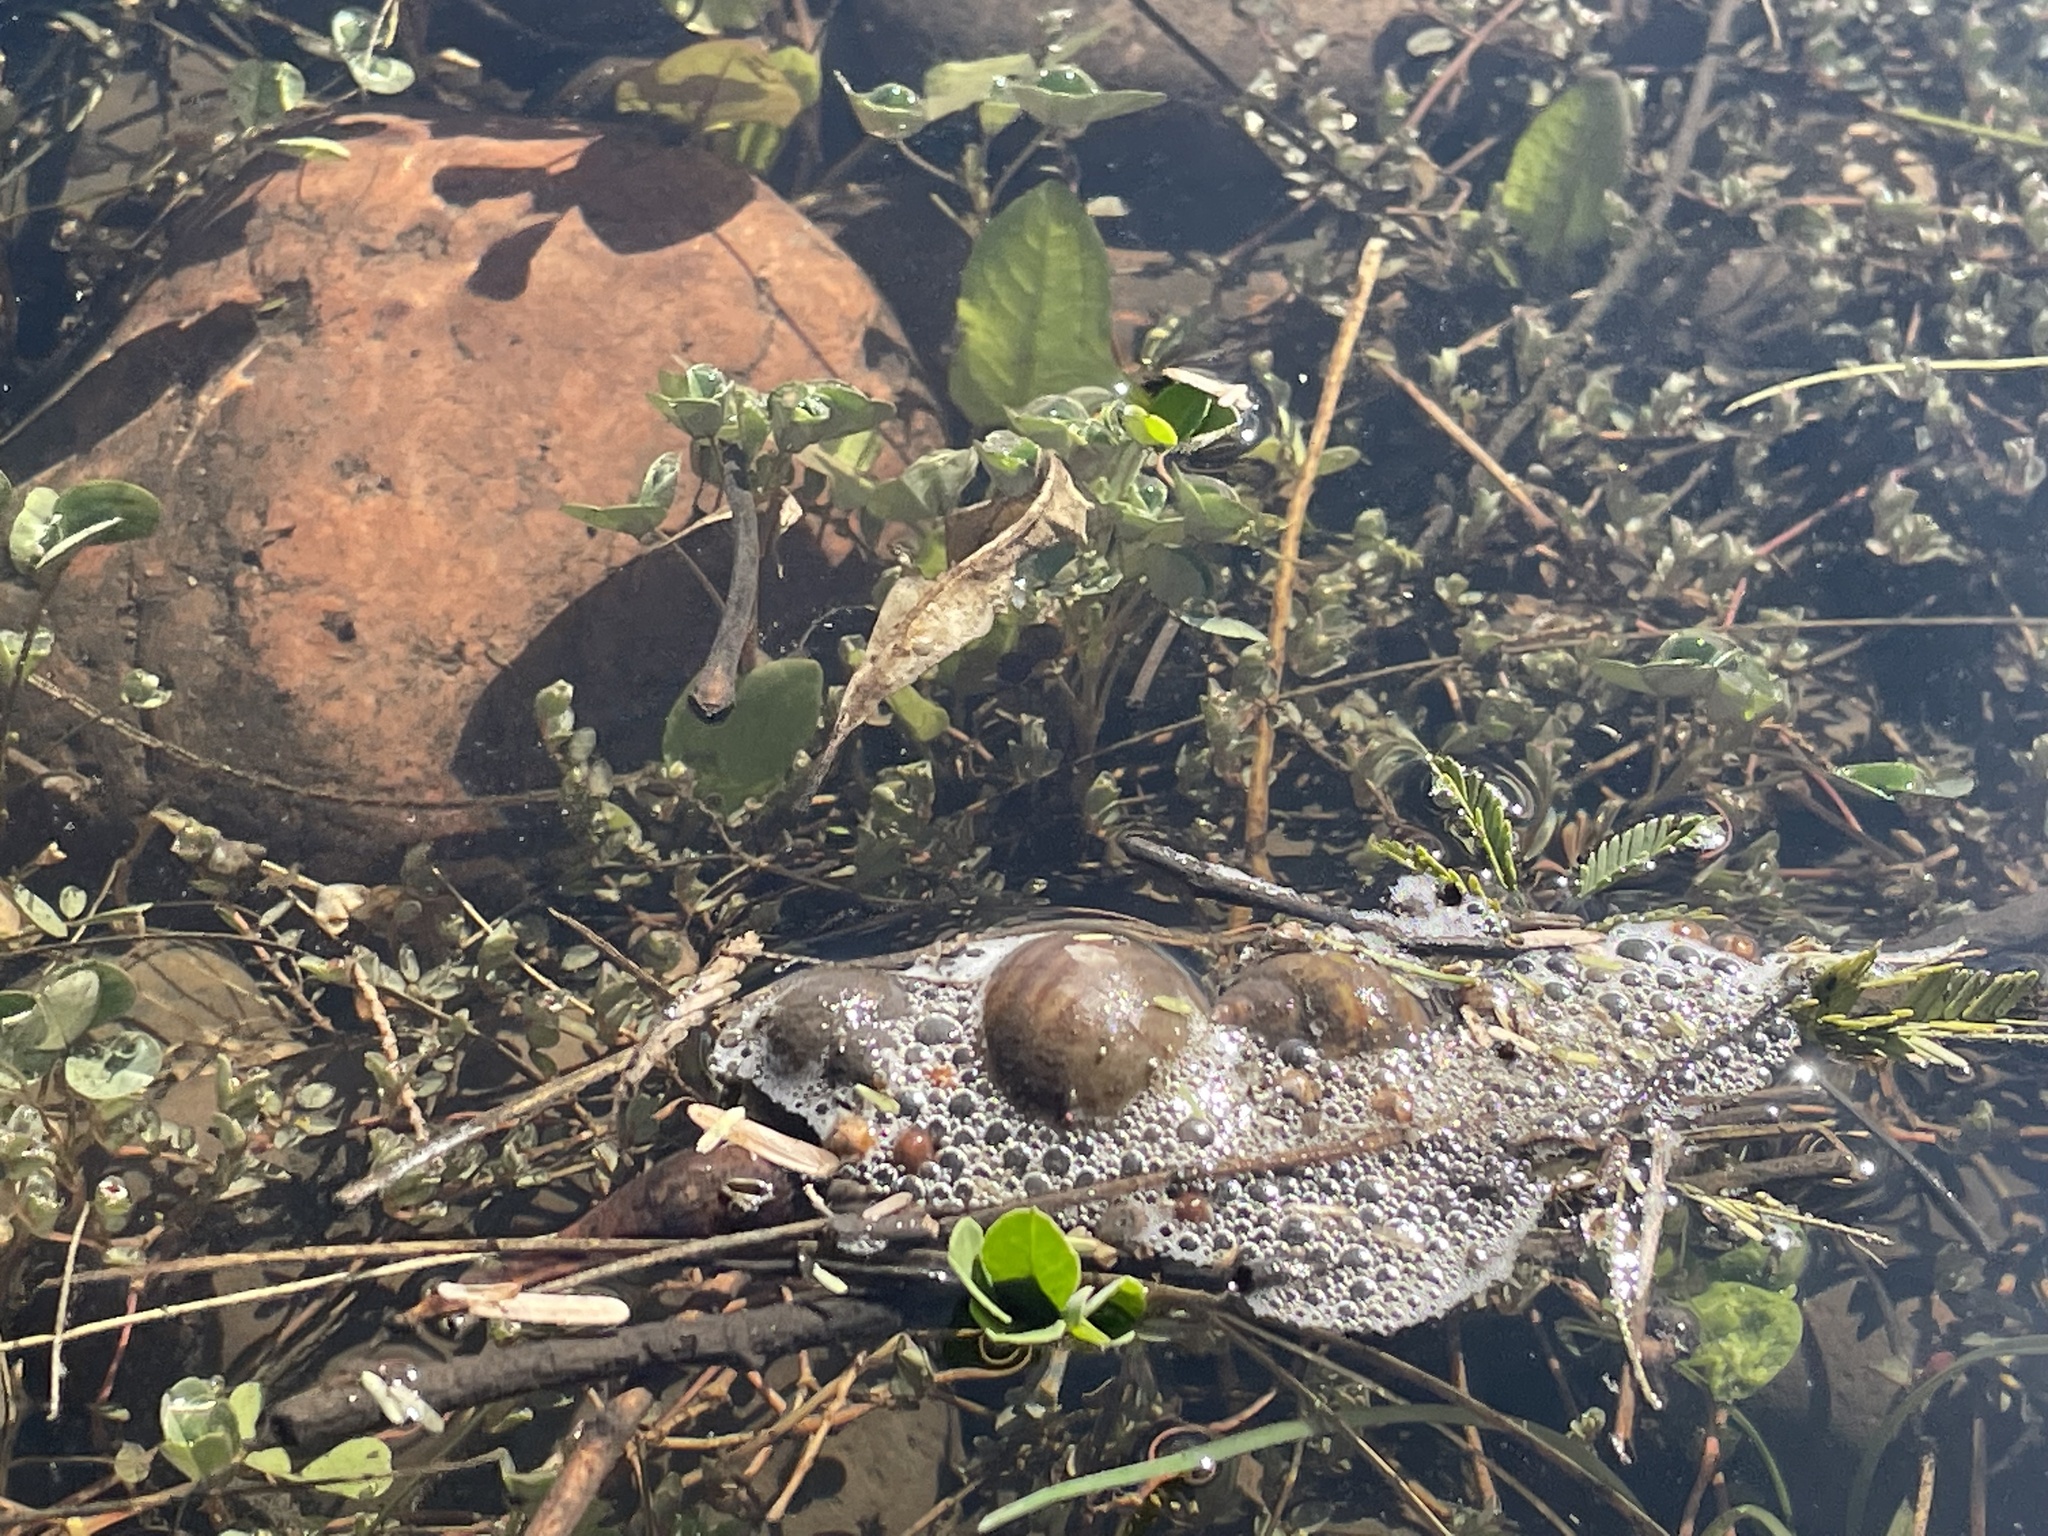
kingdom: Animalia
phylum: Mollusca
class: Gastropoda
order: Architaenioglossa
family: Ampullariidae
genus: Pomacea
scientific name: Pomacea canaliculata
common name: Channeled applesnail
